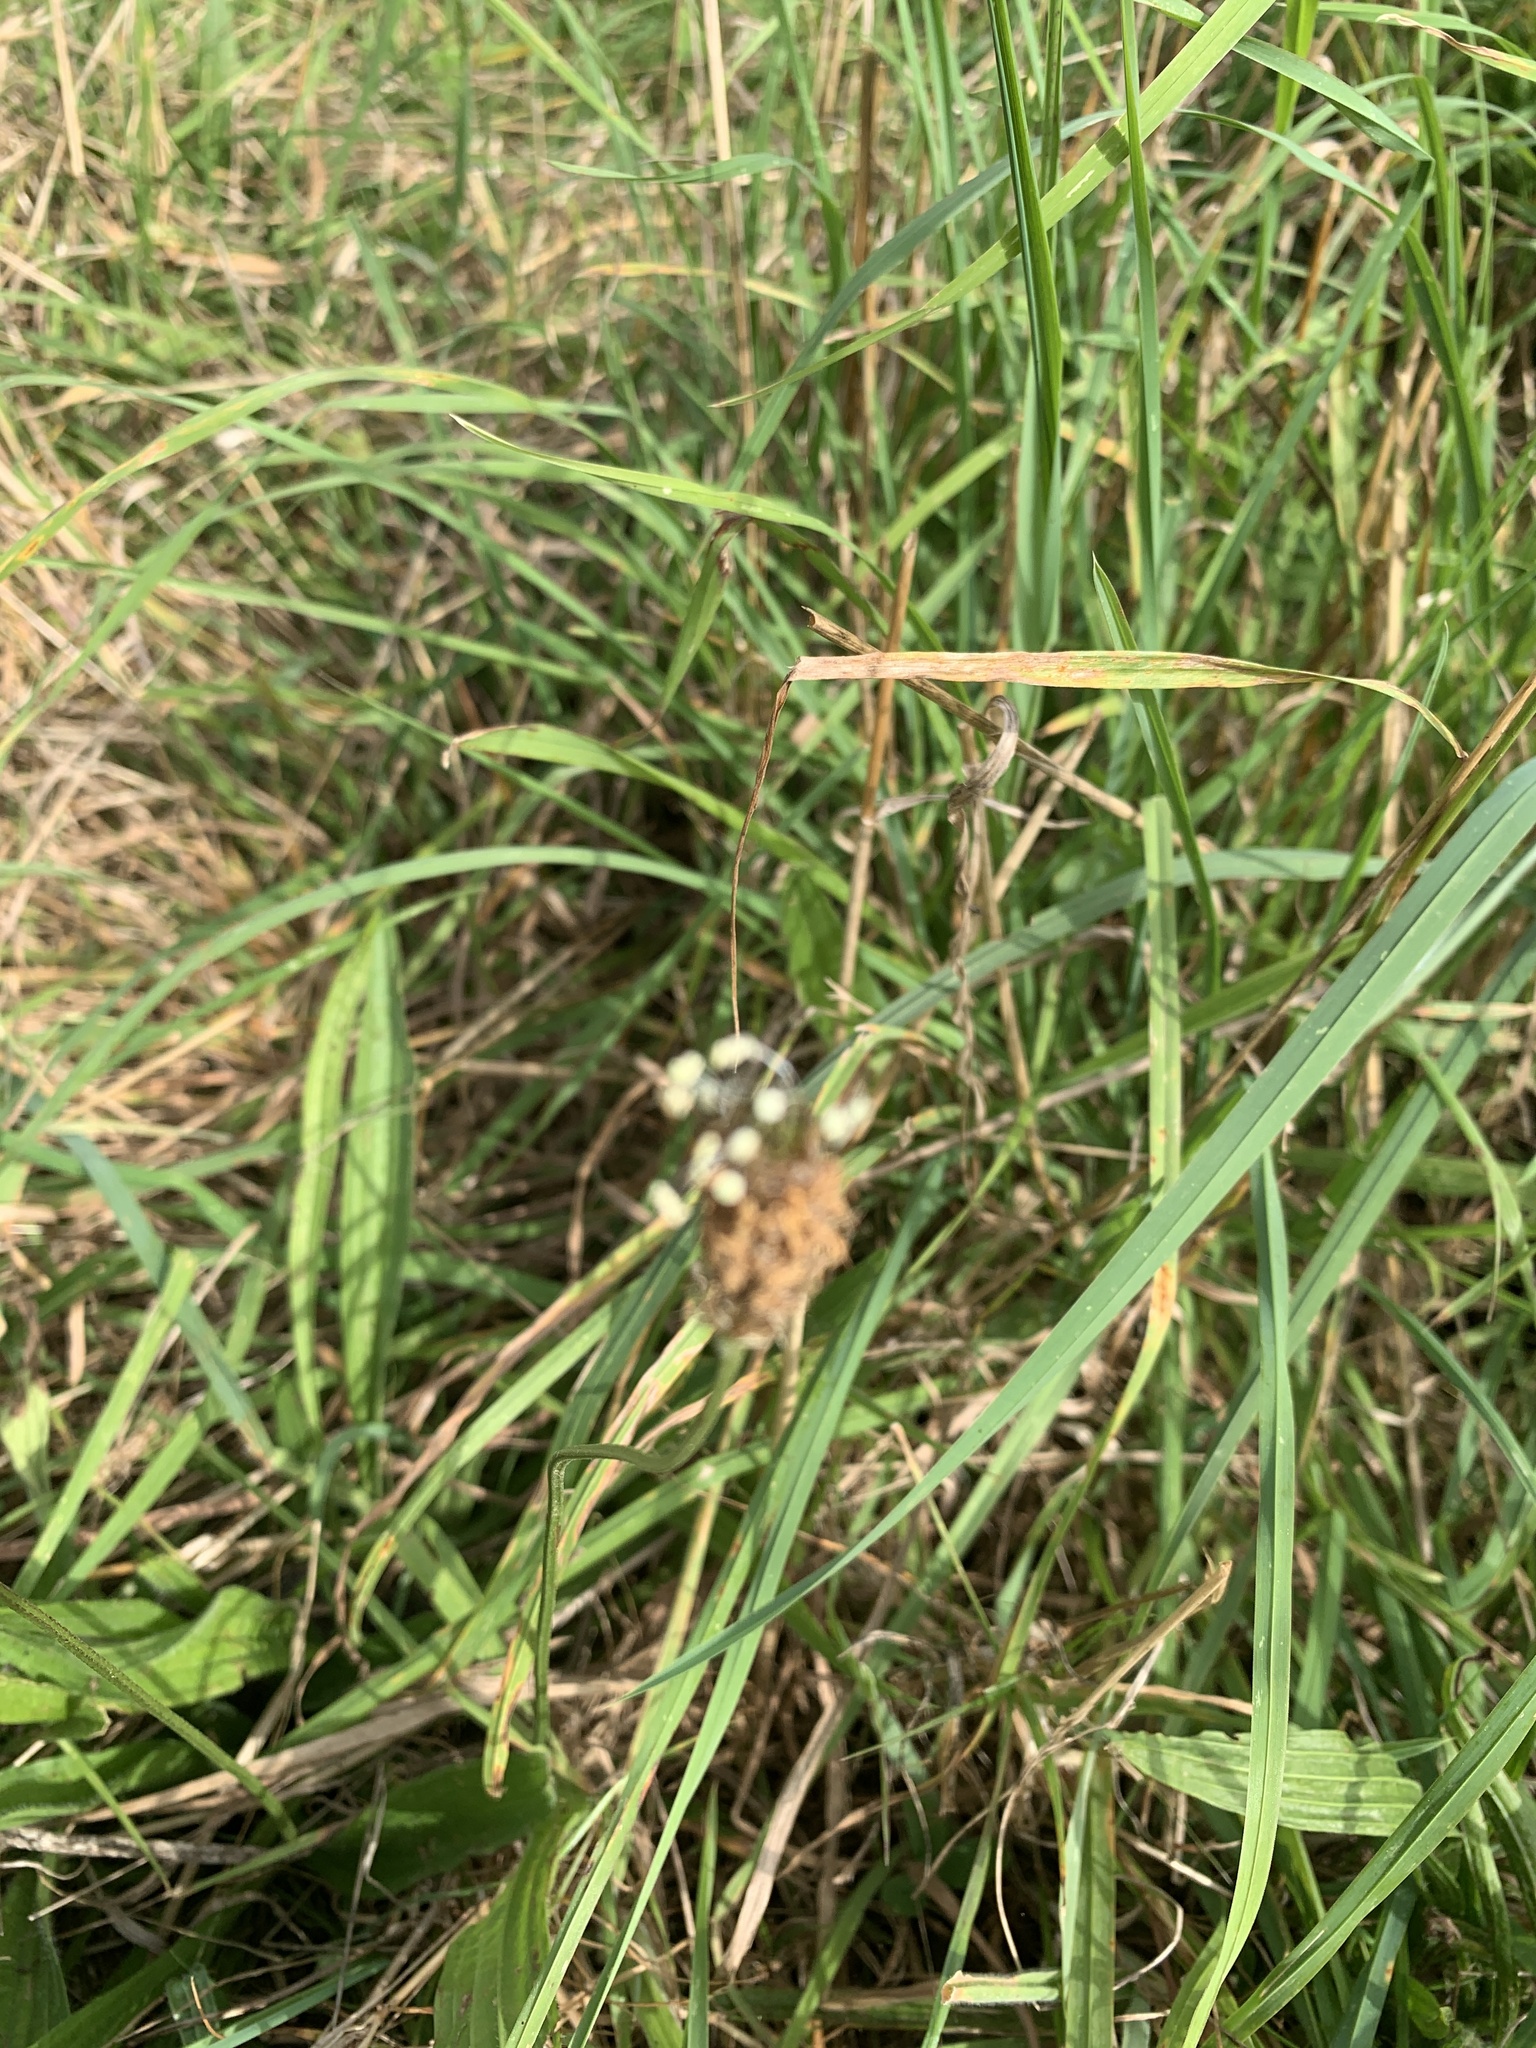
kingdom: Plantae
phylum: Tracheophyta
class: Magnoliopsida
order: Lamiales
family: Plantaginaceae
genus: Plantago
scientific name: Plantago lanceolata
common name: Ribwort plantain
